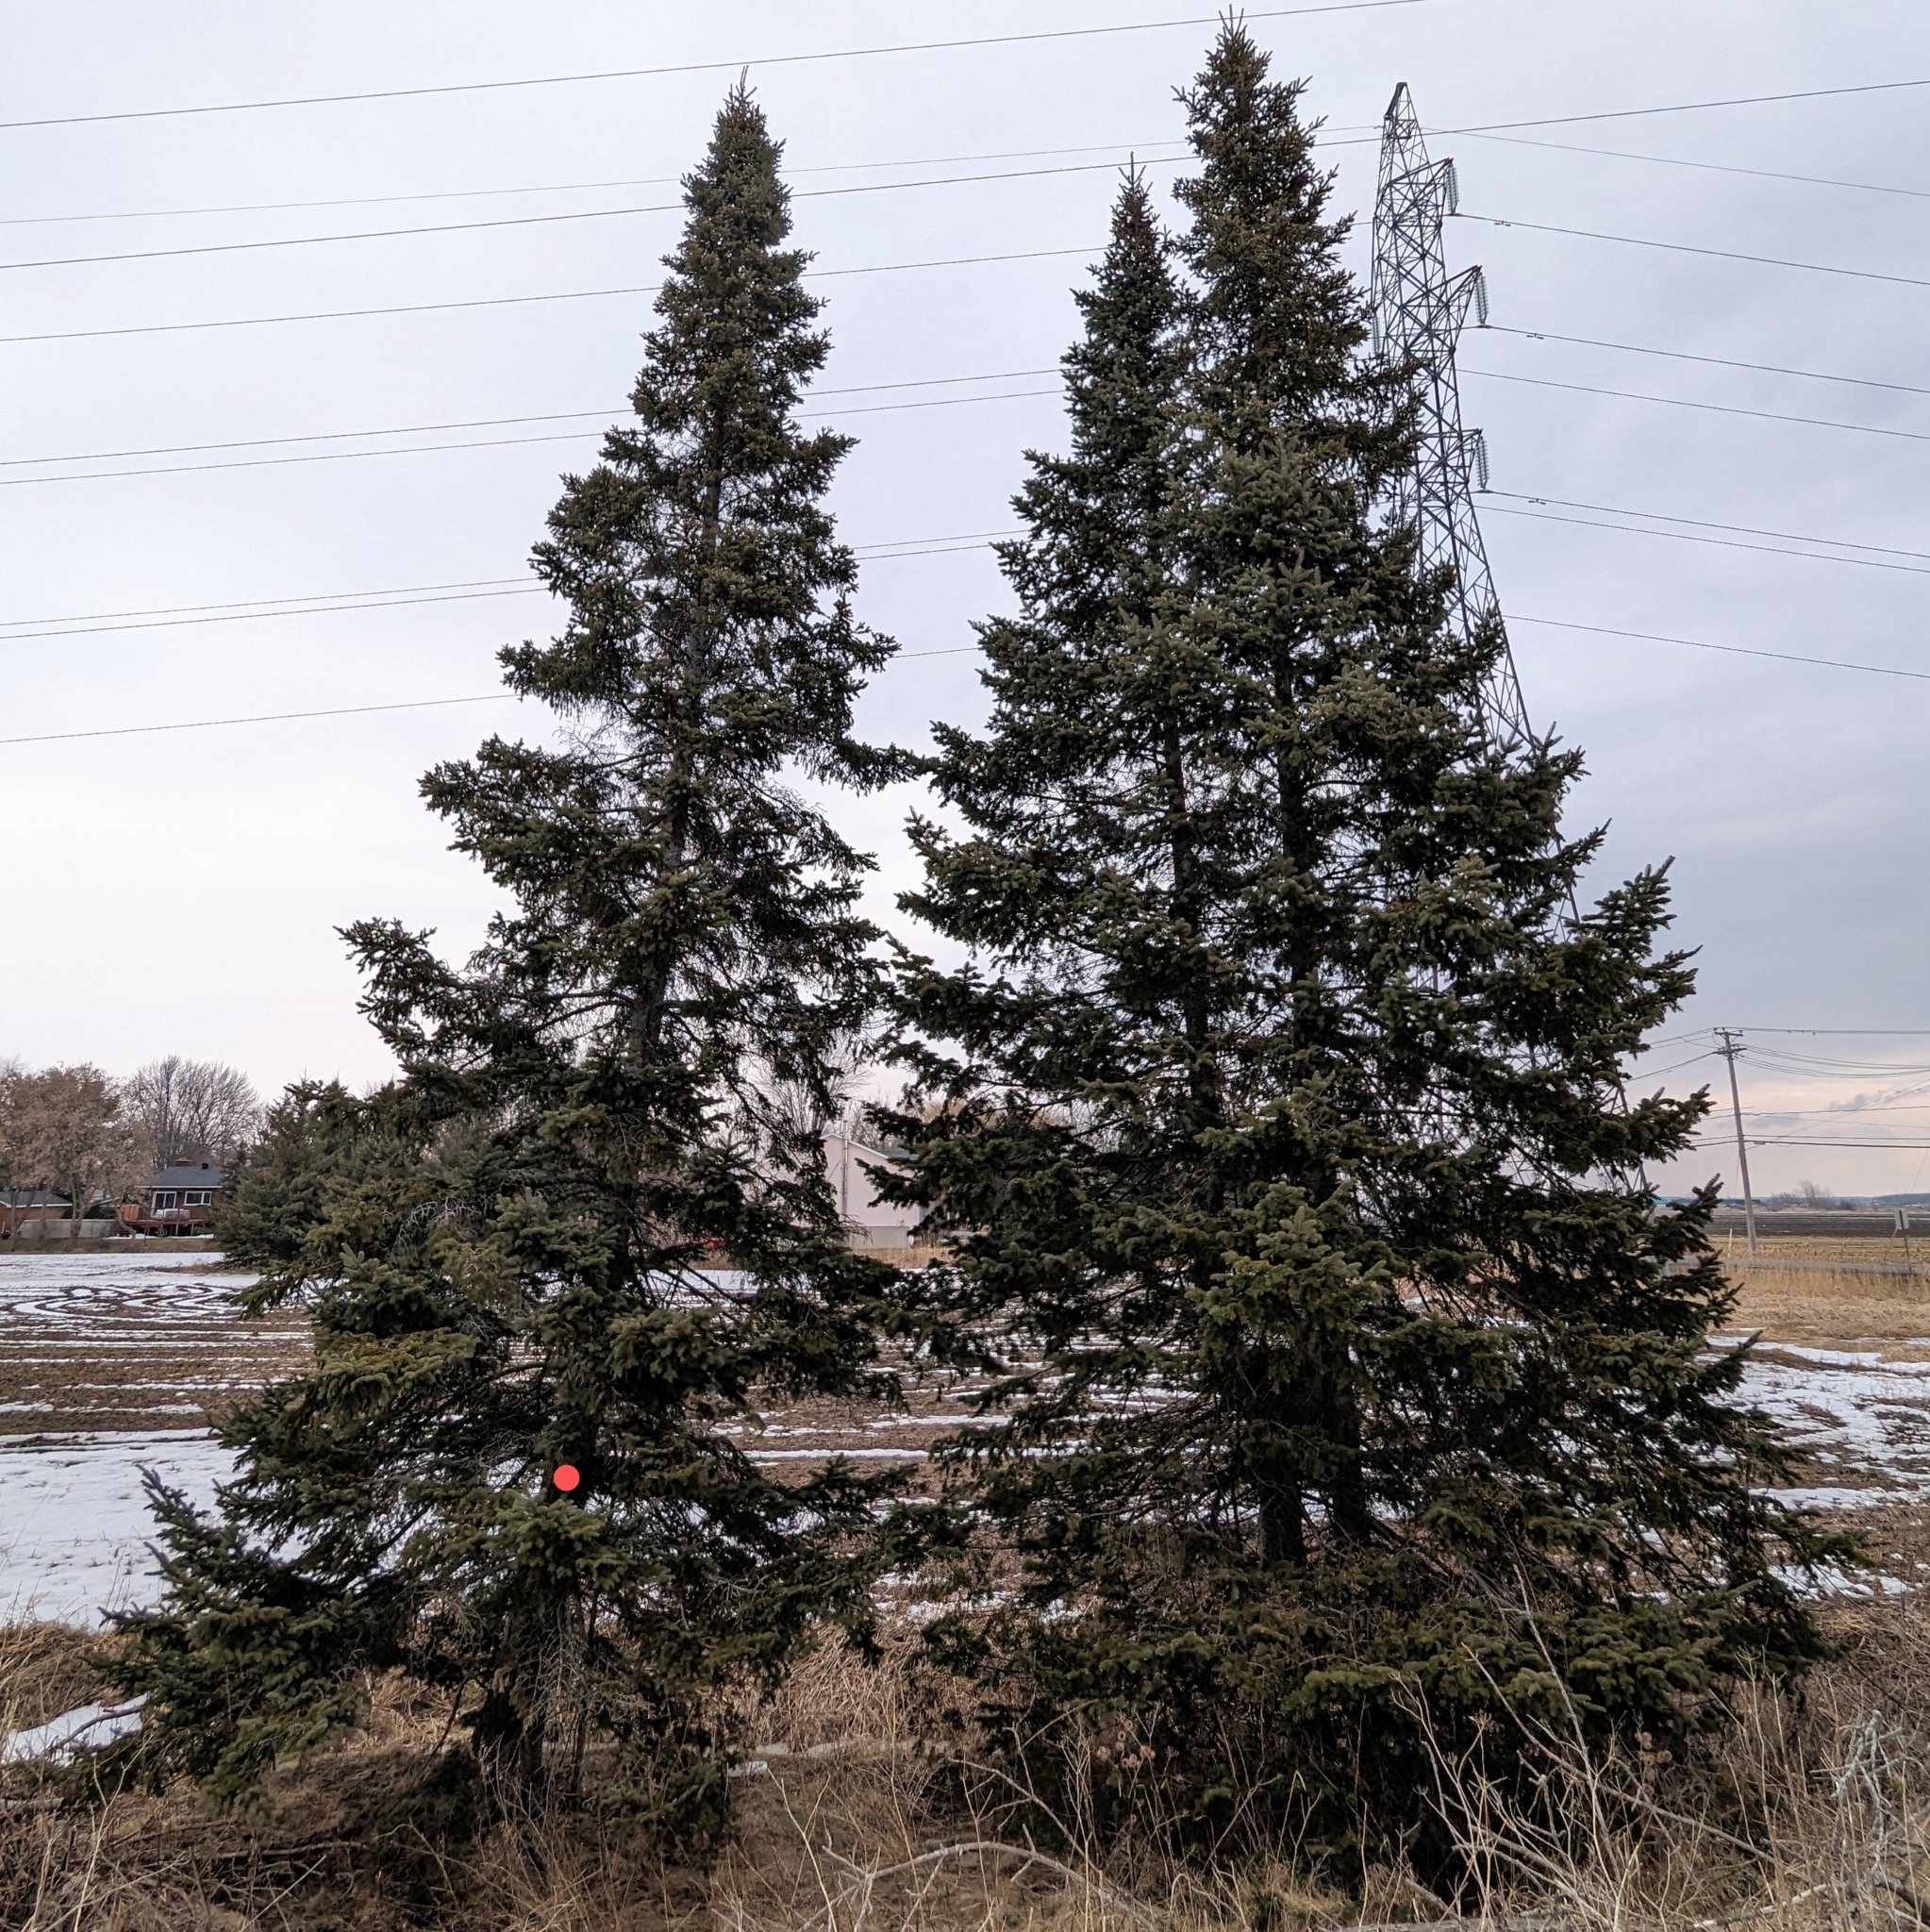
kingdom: Plantae
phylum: Tracheophyta
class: Pinopsida
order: Pinales
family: Pinaceae
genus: Abies
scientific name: Abies balsamea
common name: Balsam fir
